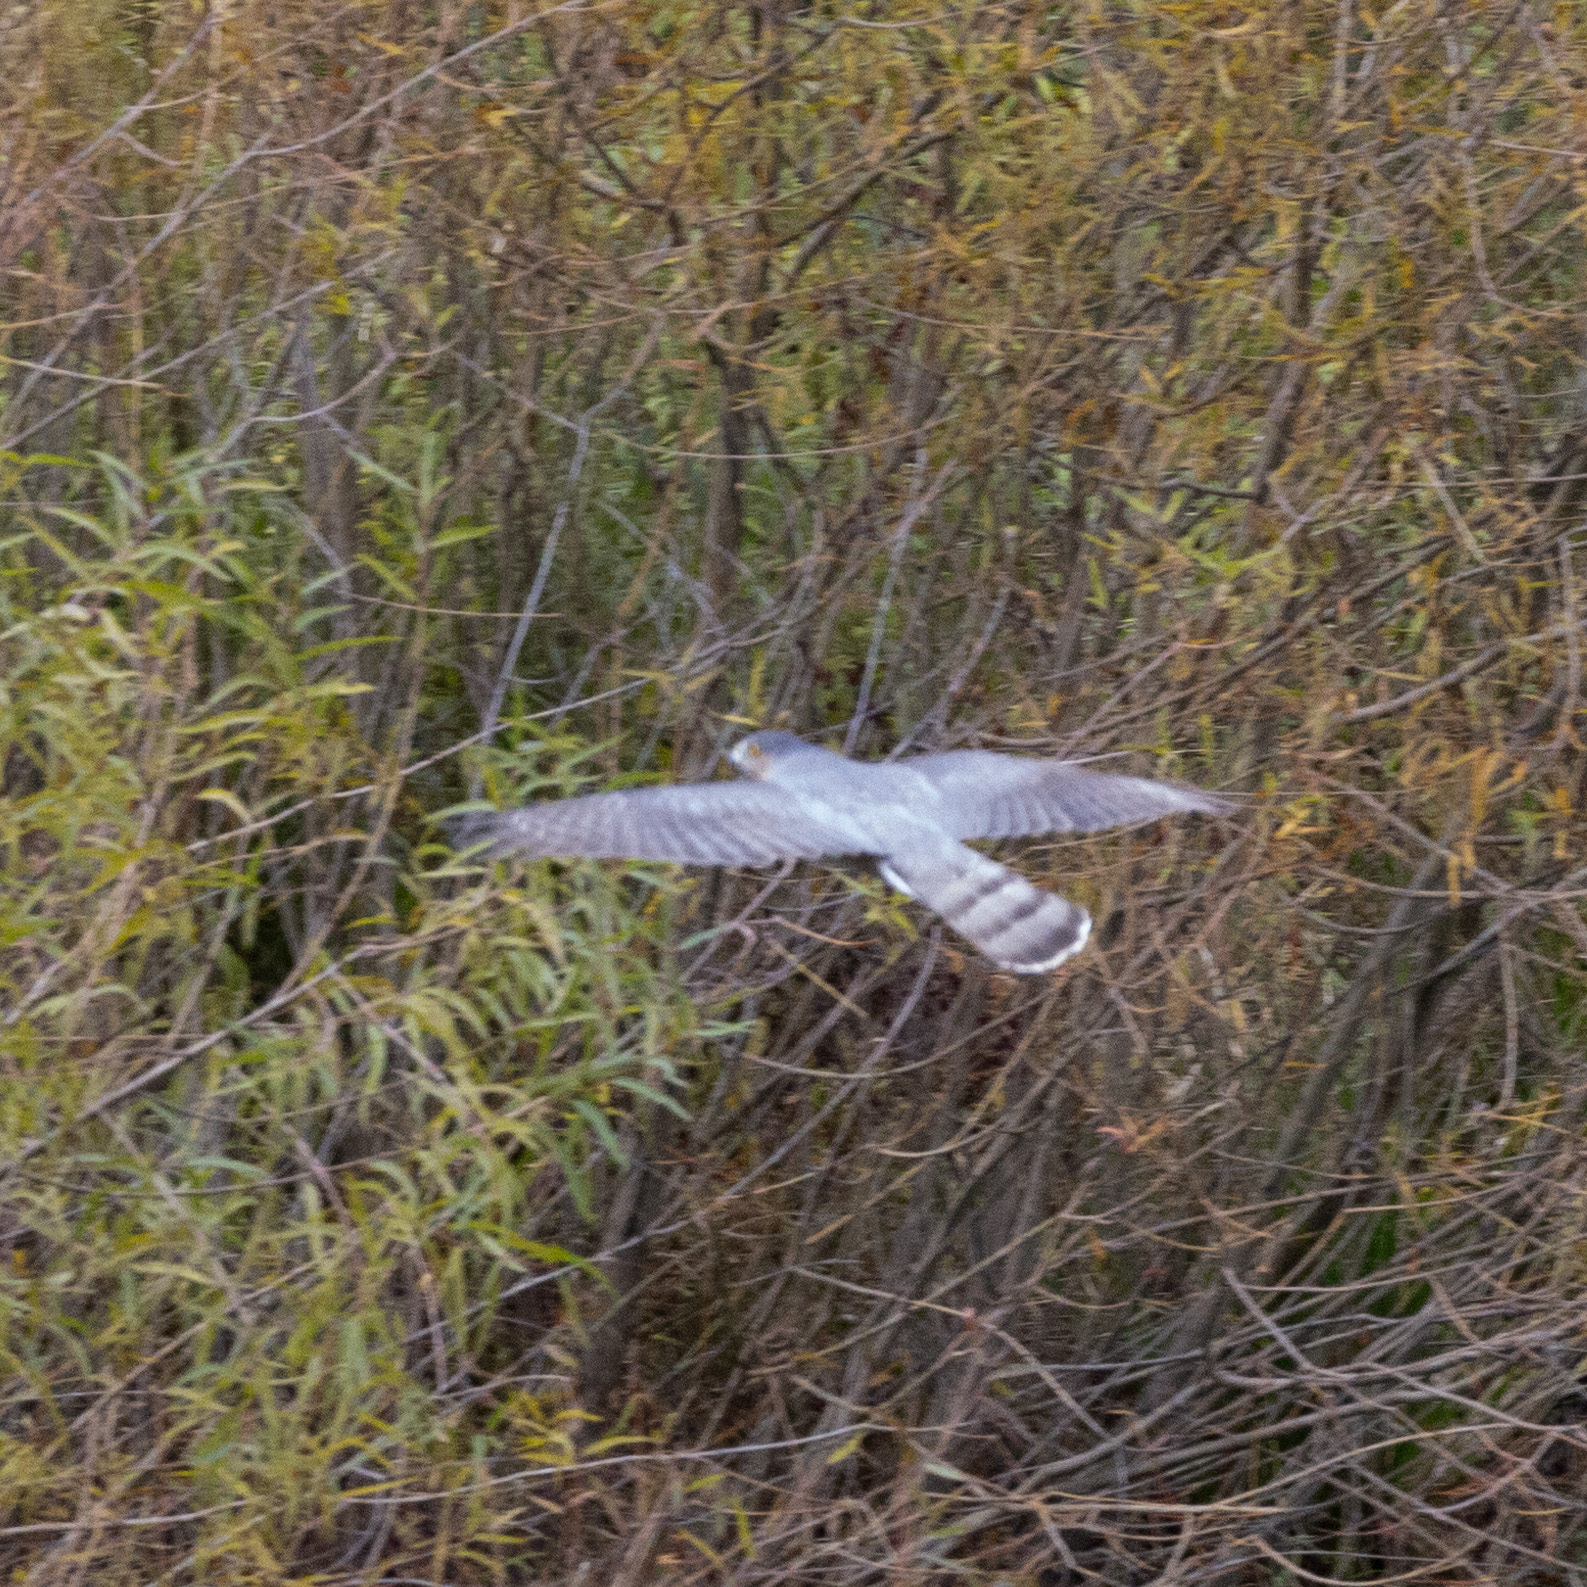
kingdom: Animalia
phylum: Chordata
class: Aves
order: Accipitriformes
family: Accipitridae
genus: Accipiter
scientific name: Accipiter cooperii
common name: Cooper's hawk
